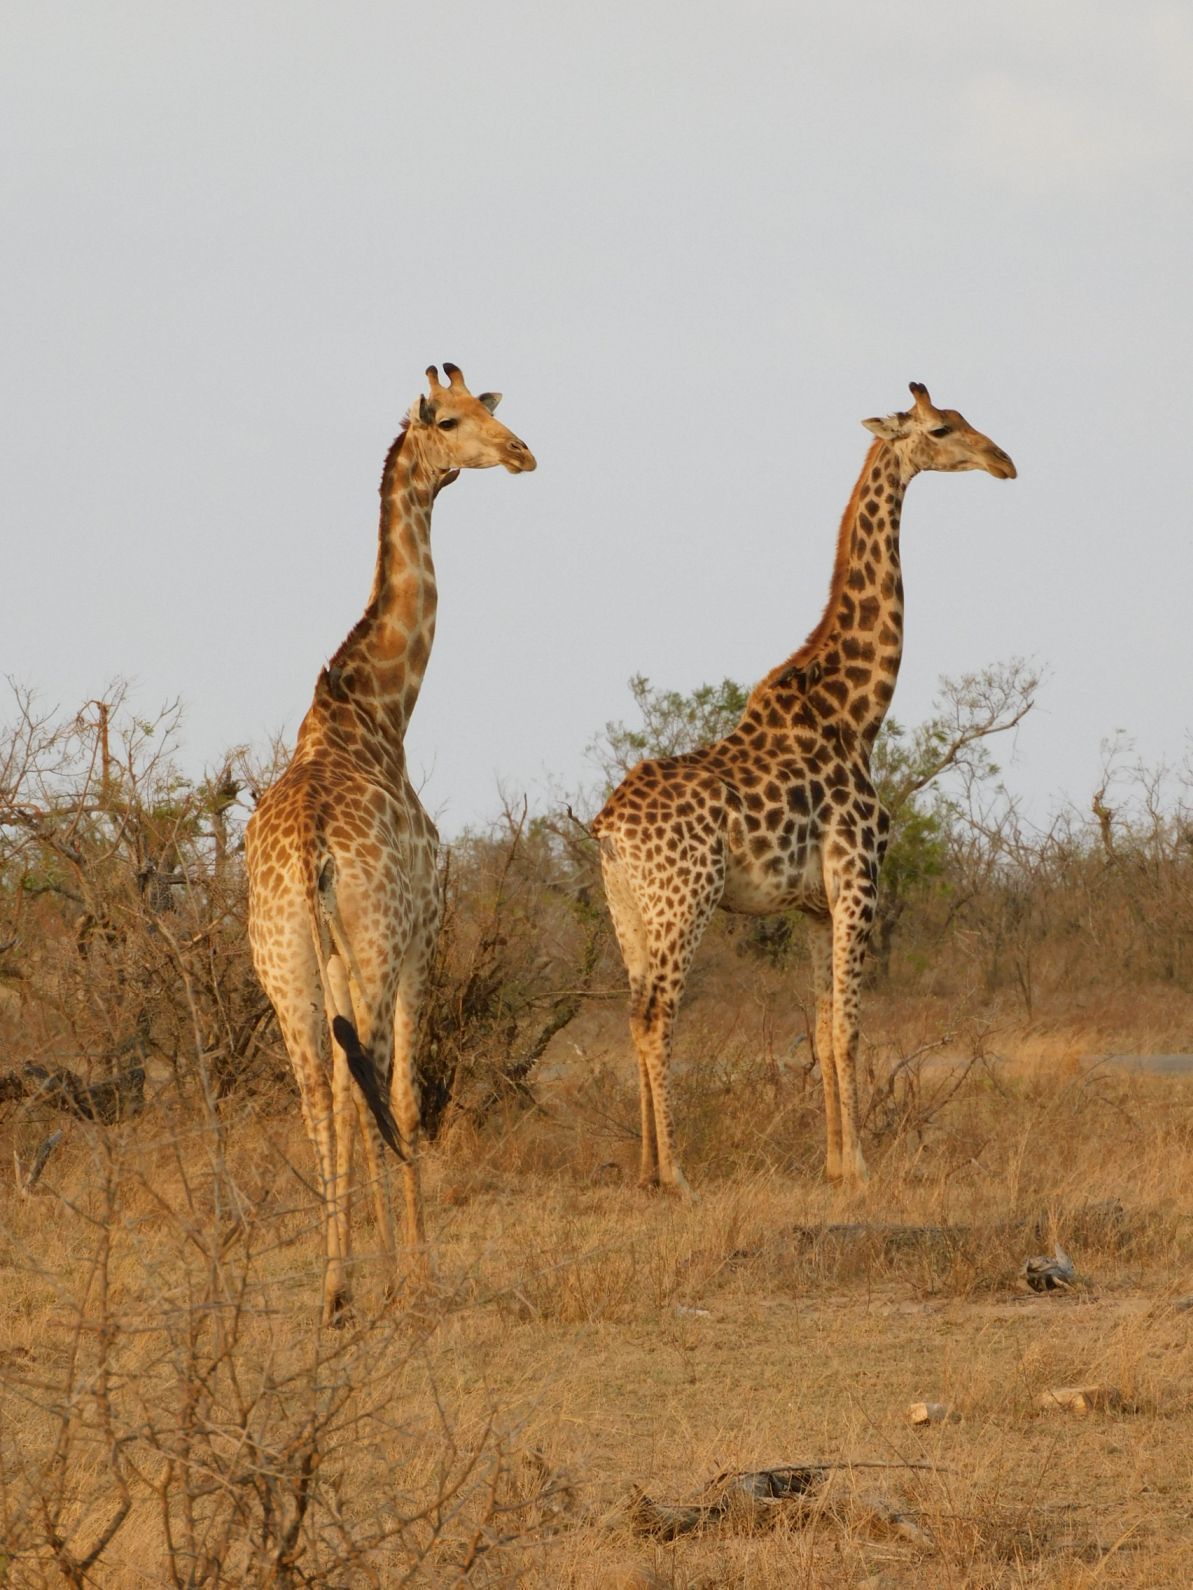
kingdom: Animalia
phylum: Chordata
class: Mammalia
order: Artiodactyla
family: Giraffidae
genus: Giraffa
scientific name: Giraffa giraffa
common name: Southern giraffe
